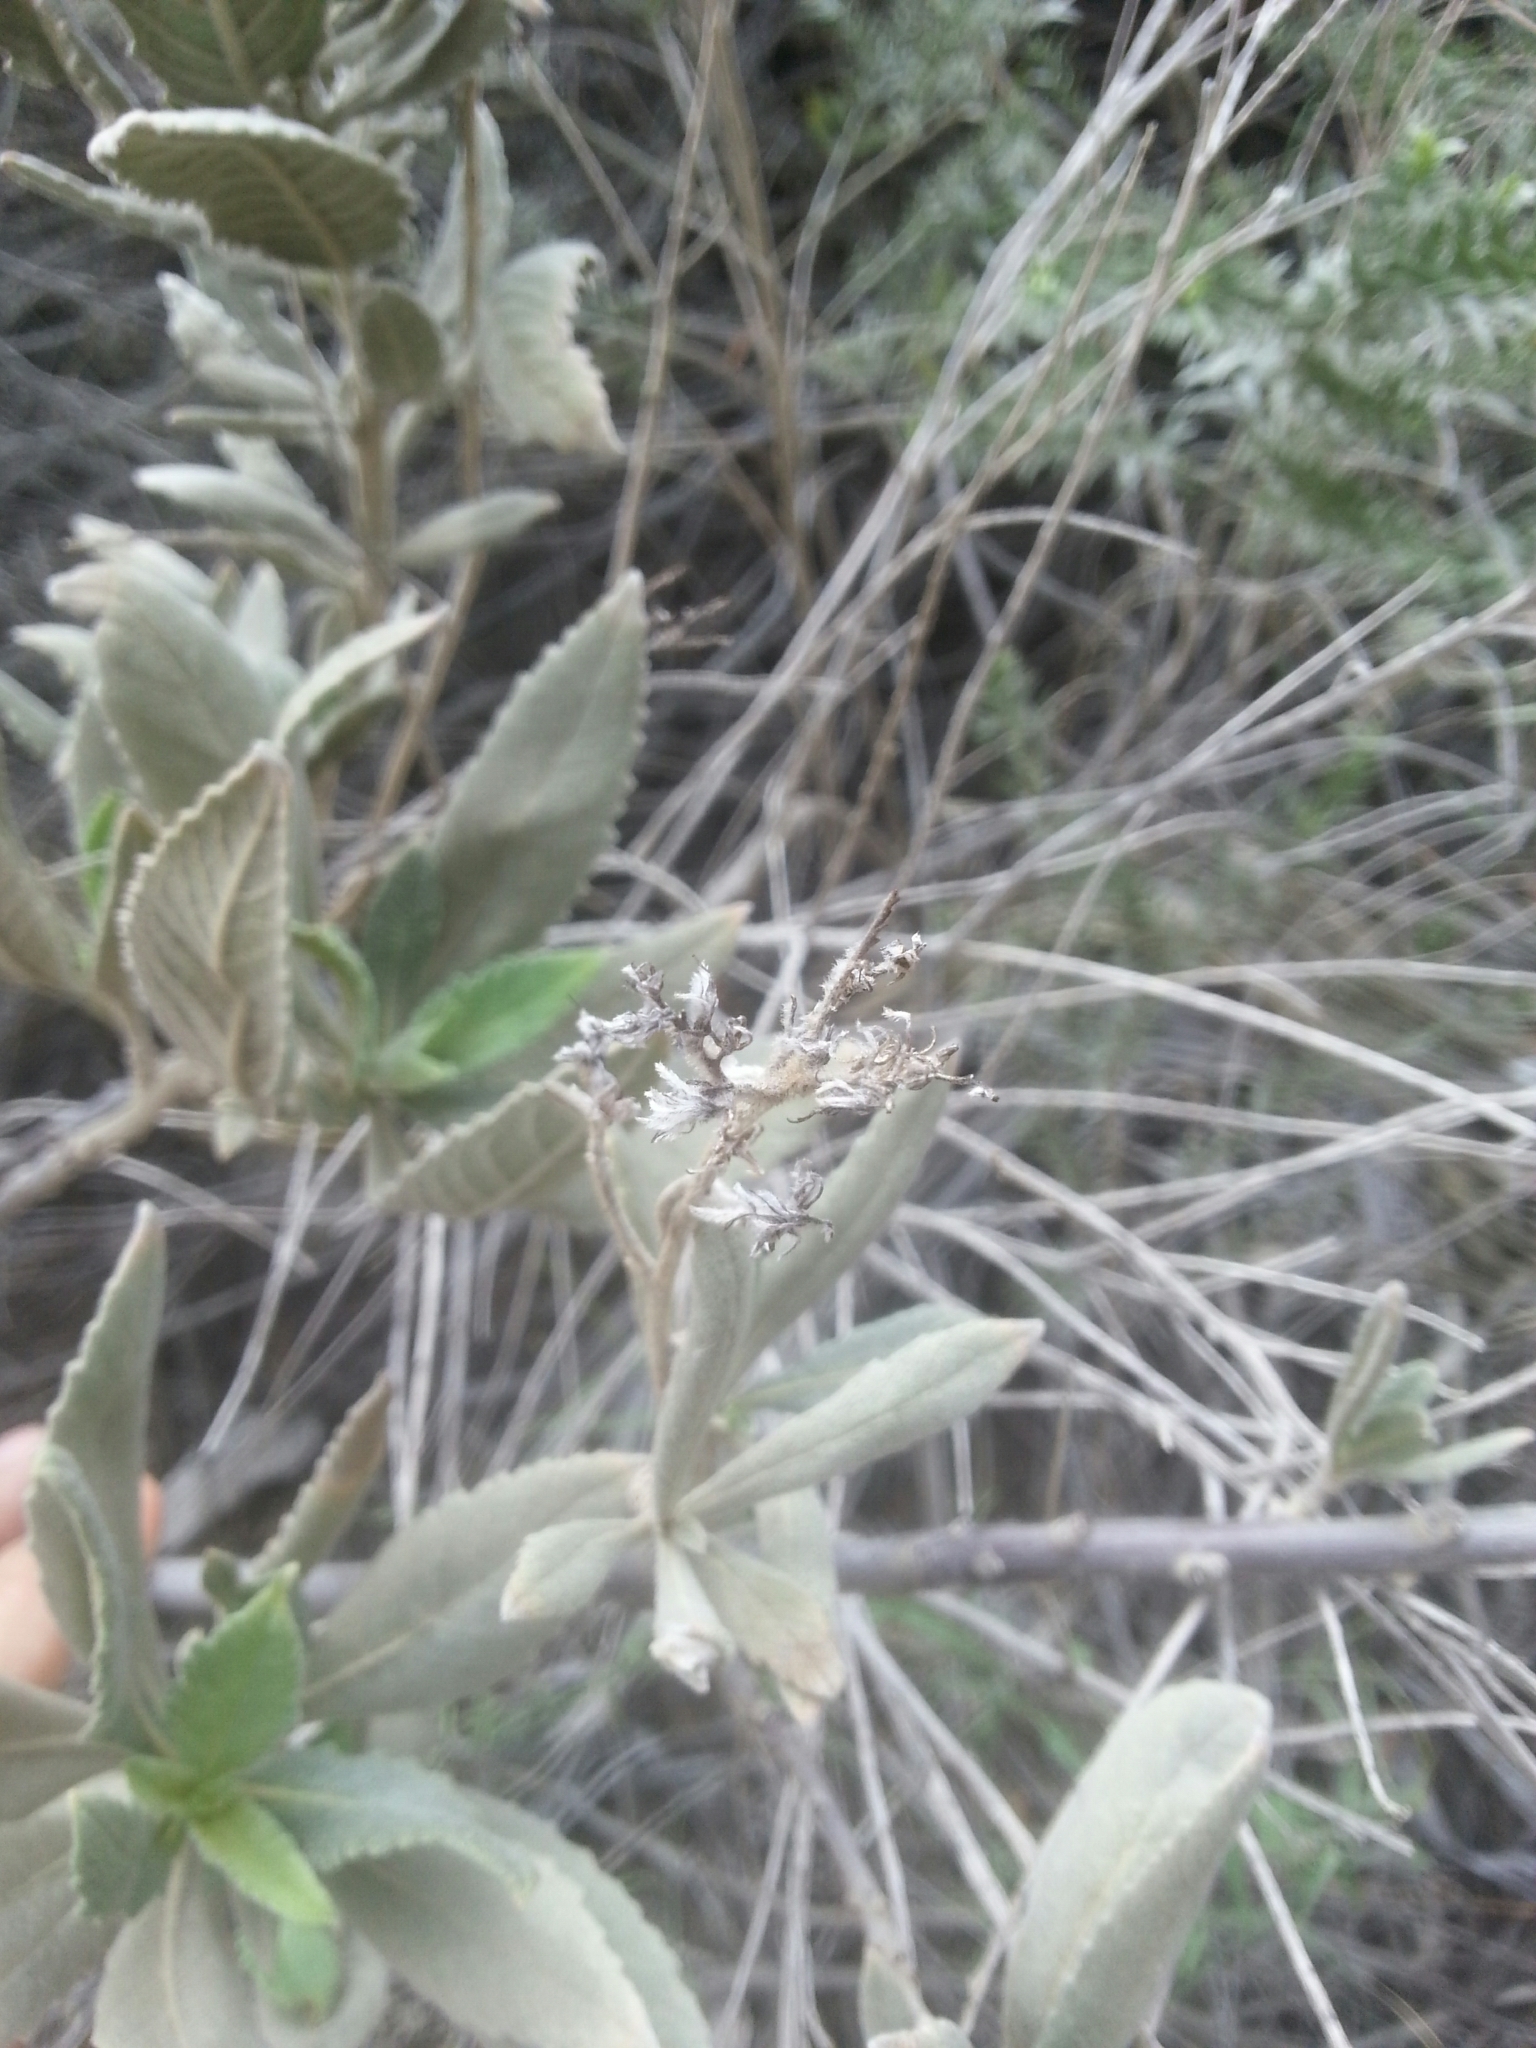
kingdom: Plantae
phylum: Tracheophyta
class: Magnoliopsida
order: Boraginales
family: Namaceae
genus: Eriodictyon
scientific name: Eriodictyon crassifolium
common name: Thick-leaf yerba-santa
